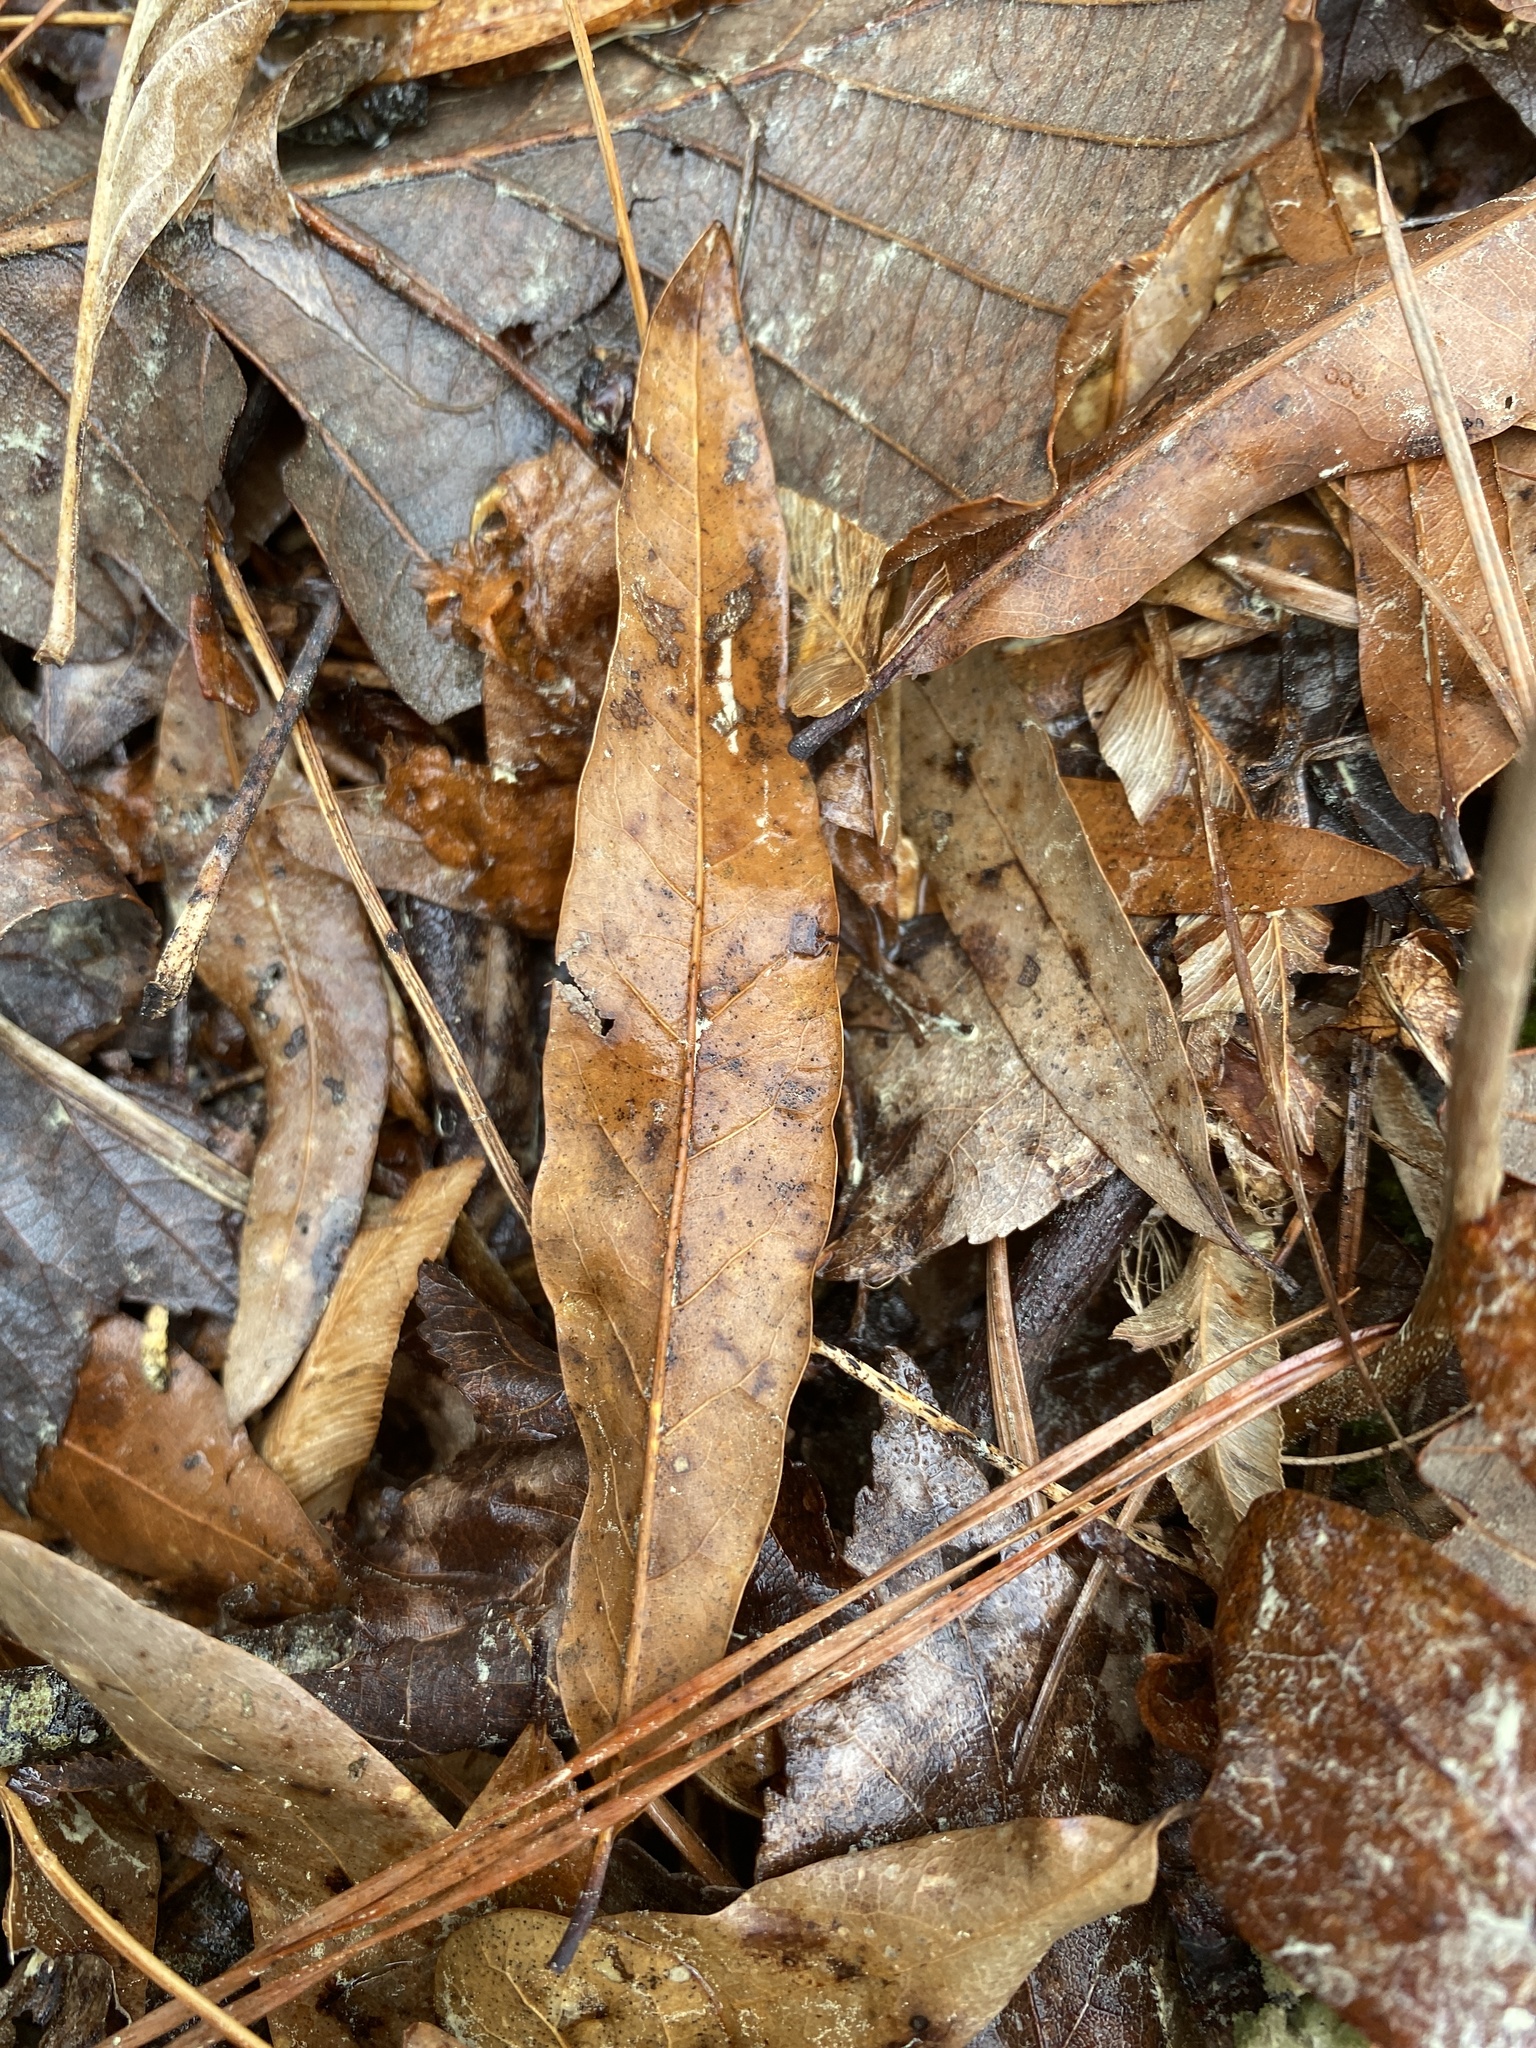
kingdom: Plantae
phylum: Tracheophyta
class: Magnoliopsida
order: Fagales
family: Fagaceae
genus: Quercus
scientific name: Quercus phellos
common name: Willow oak
